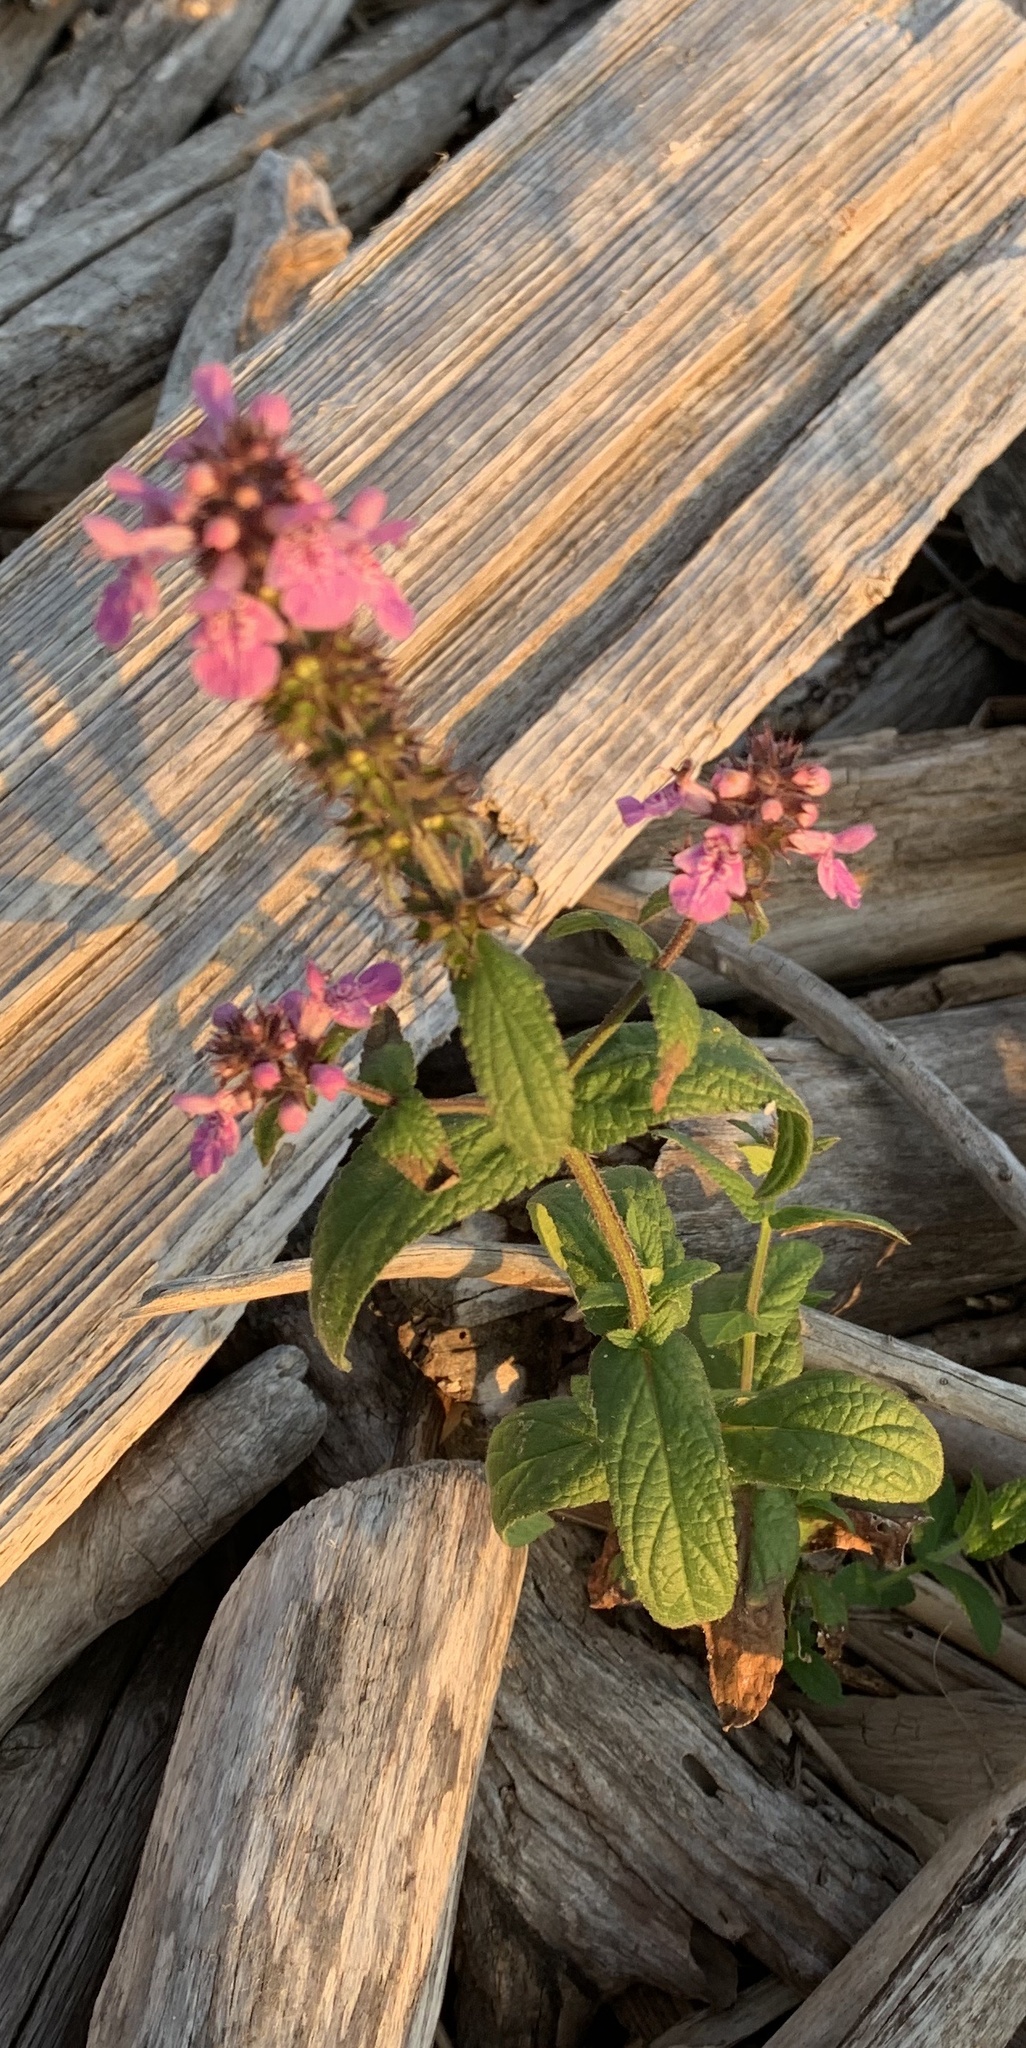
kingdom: Plantae
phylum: Tracheophyta
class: Magnoliopsida
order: Lamiales
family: Lamiaceae
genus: Stachys
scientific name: Stachys palustris
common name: Marsh woundwort
